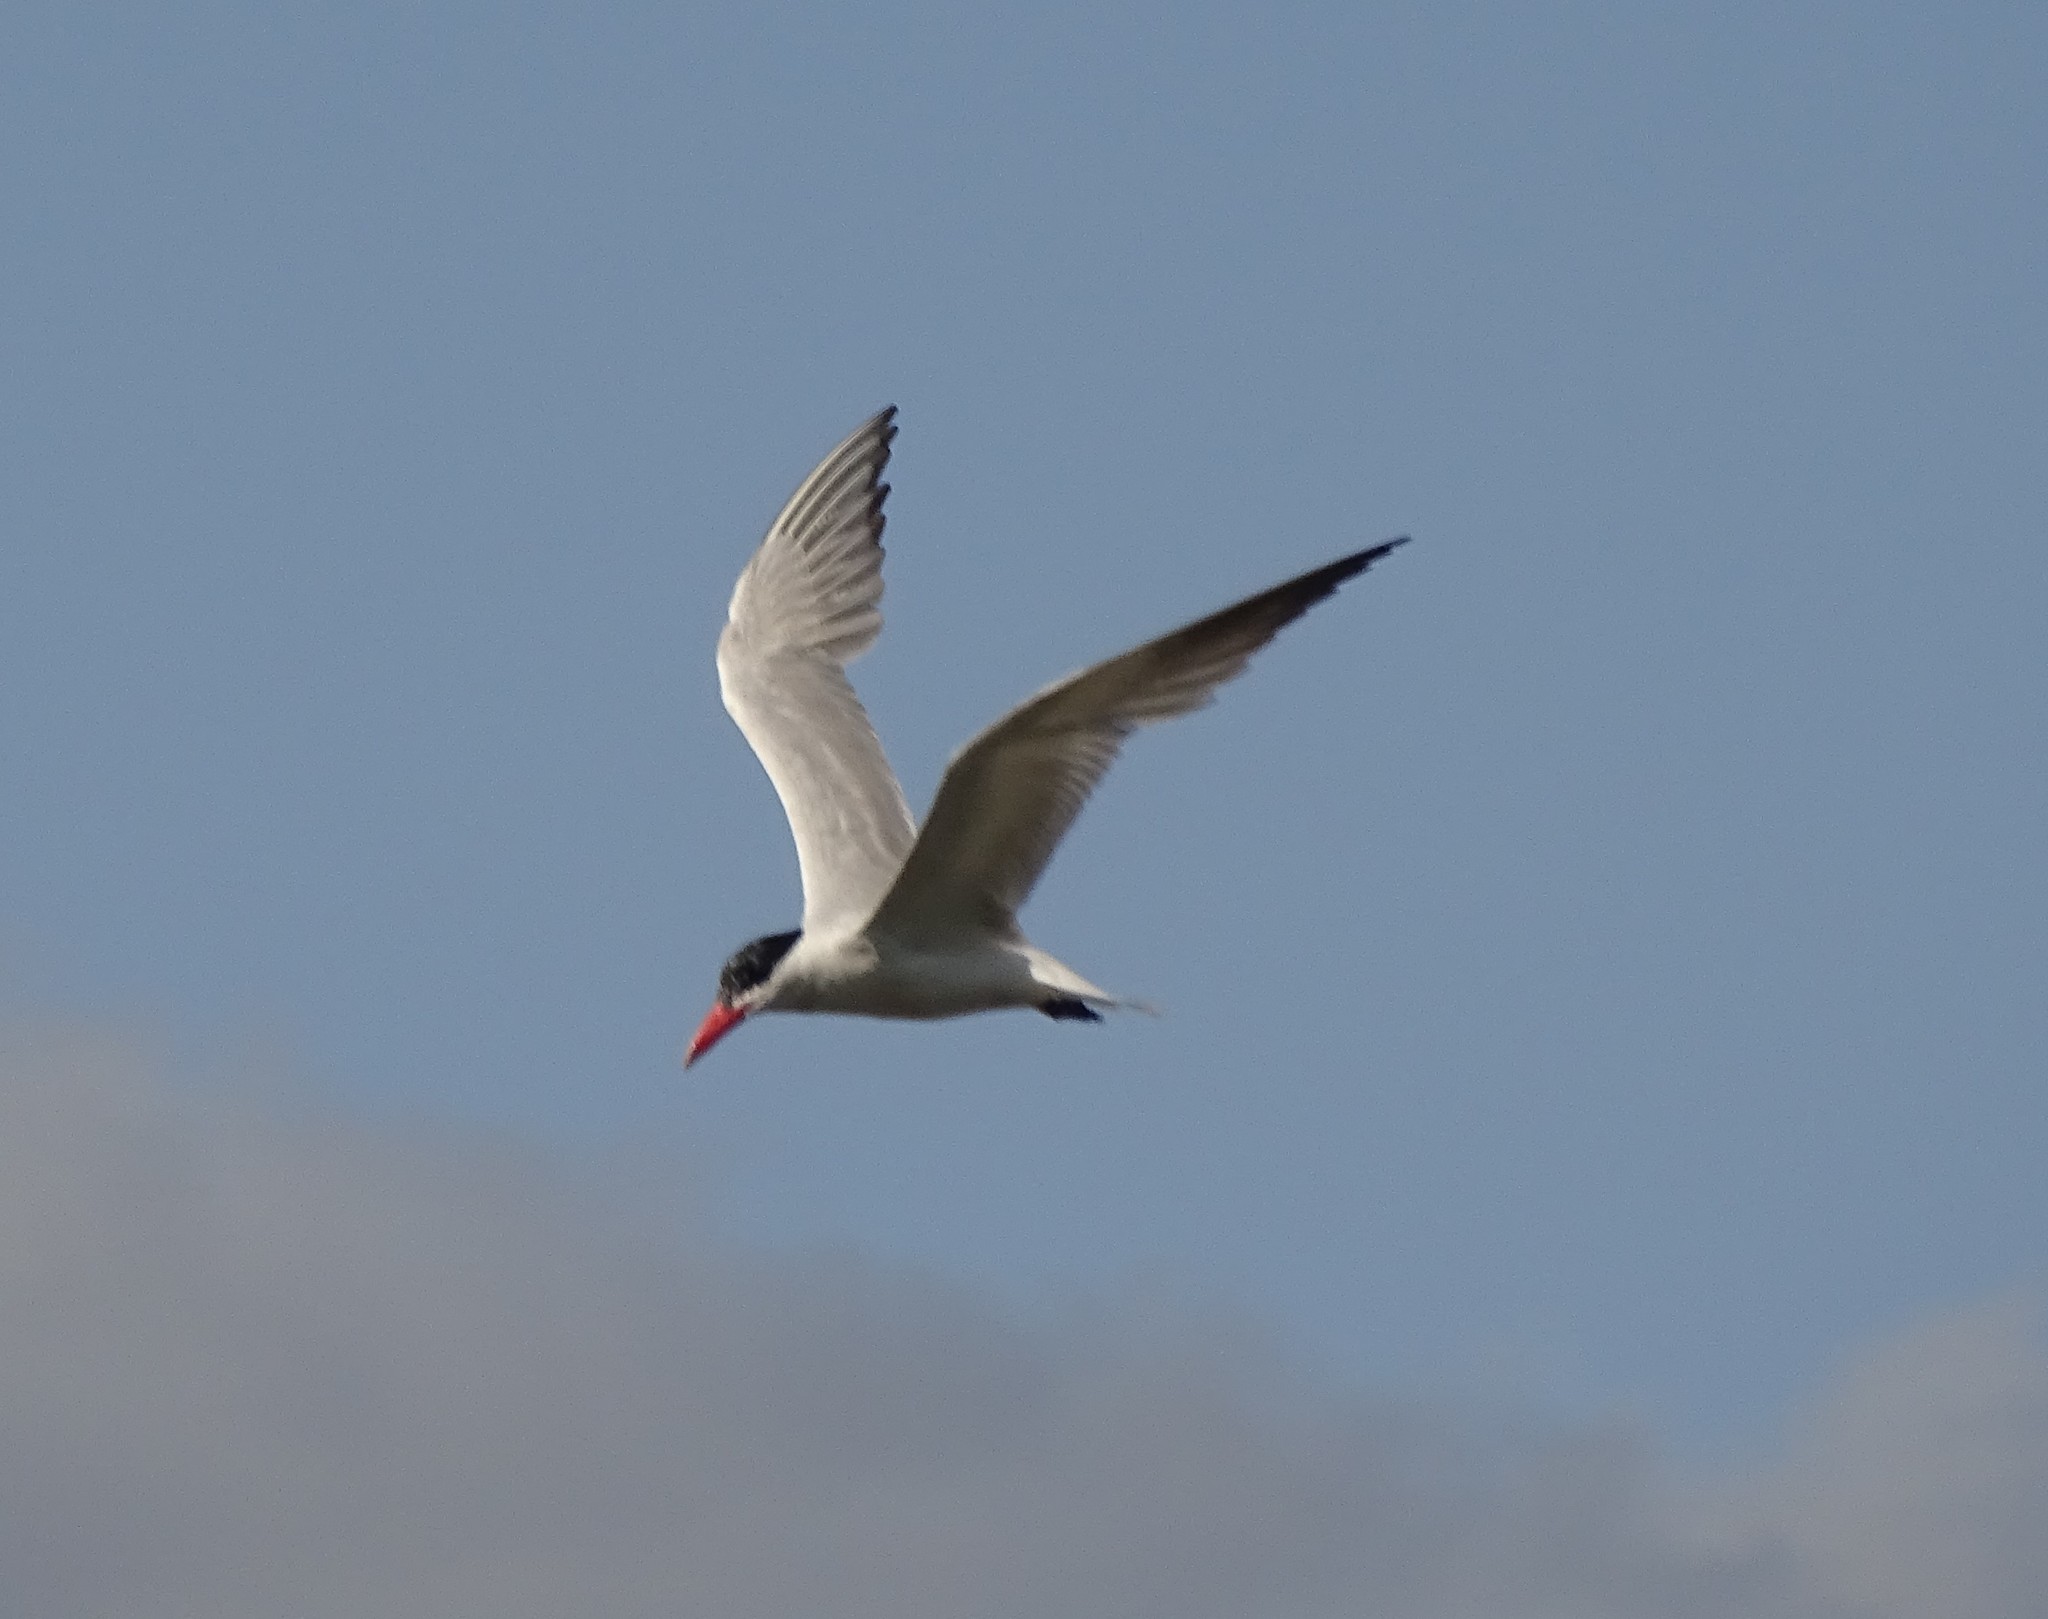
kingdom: Animalia
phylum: Chordata
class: Aves
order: Charadriiformes
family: Laridae
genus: Hydroprogne
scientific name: Hydroprogne caspia
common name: Caspian tern
